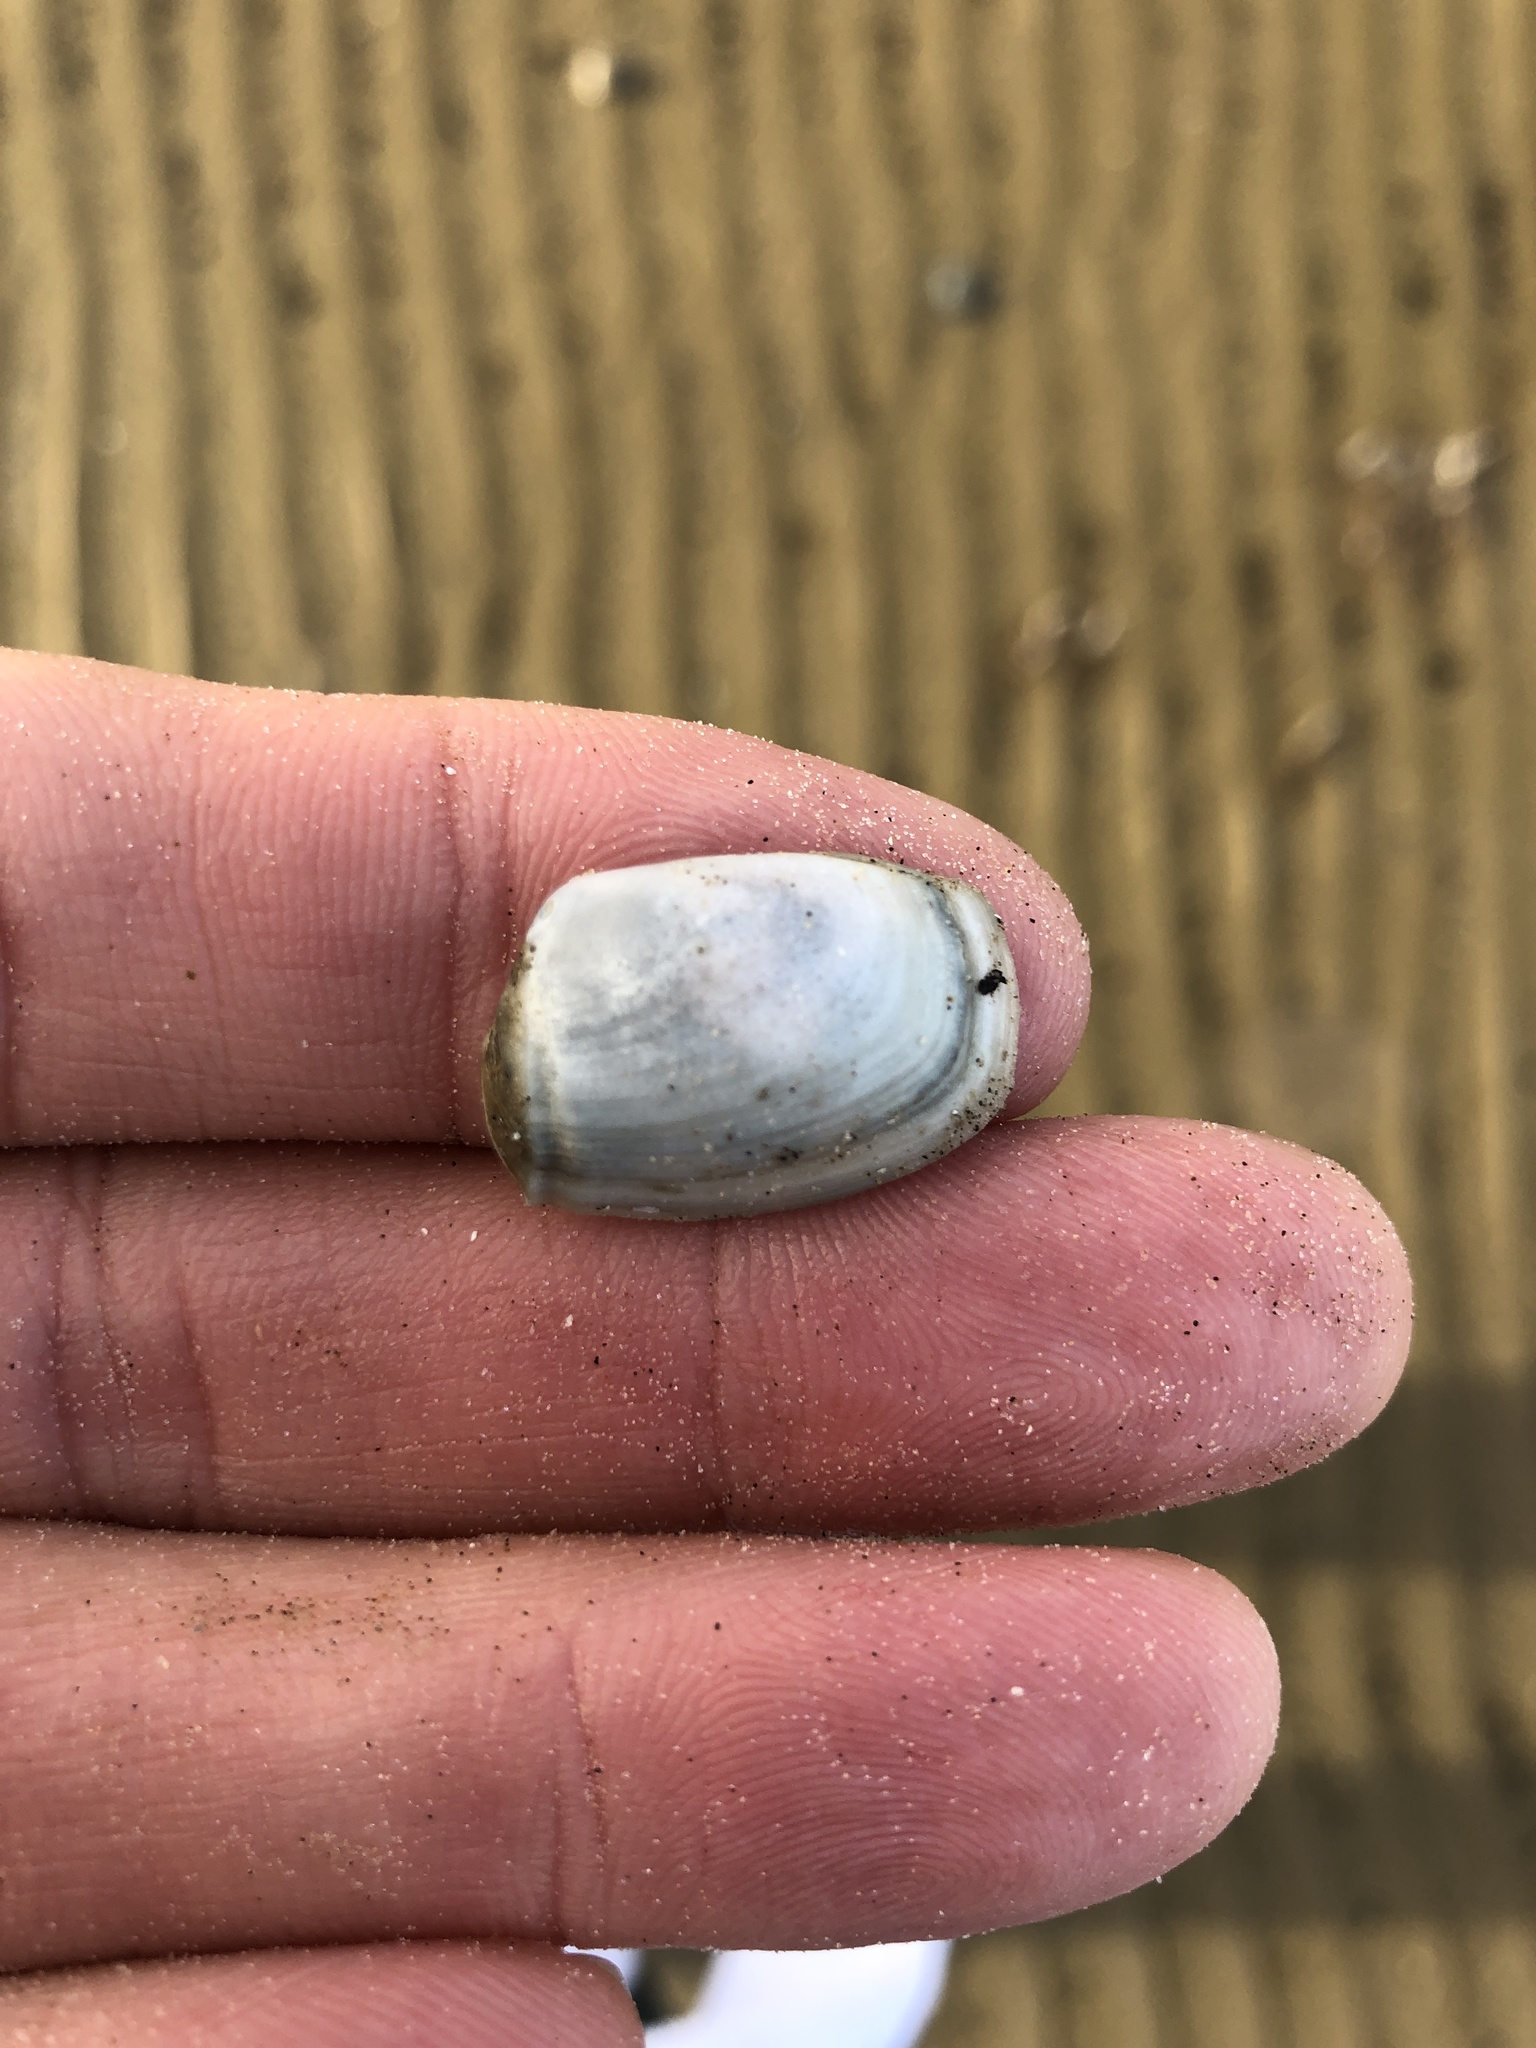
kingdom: Animalia
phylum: Mollusca
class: Bivalvia
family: Periplomatidae
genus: Periploma
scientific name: Periploma inequale
